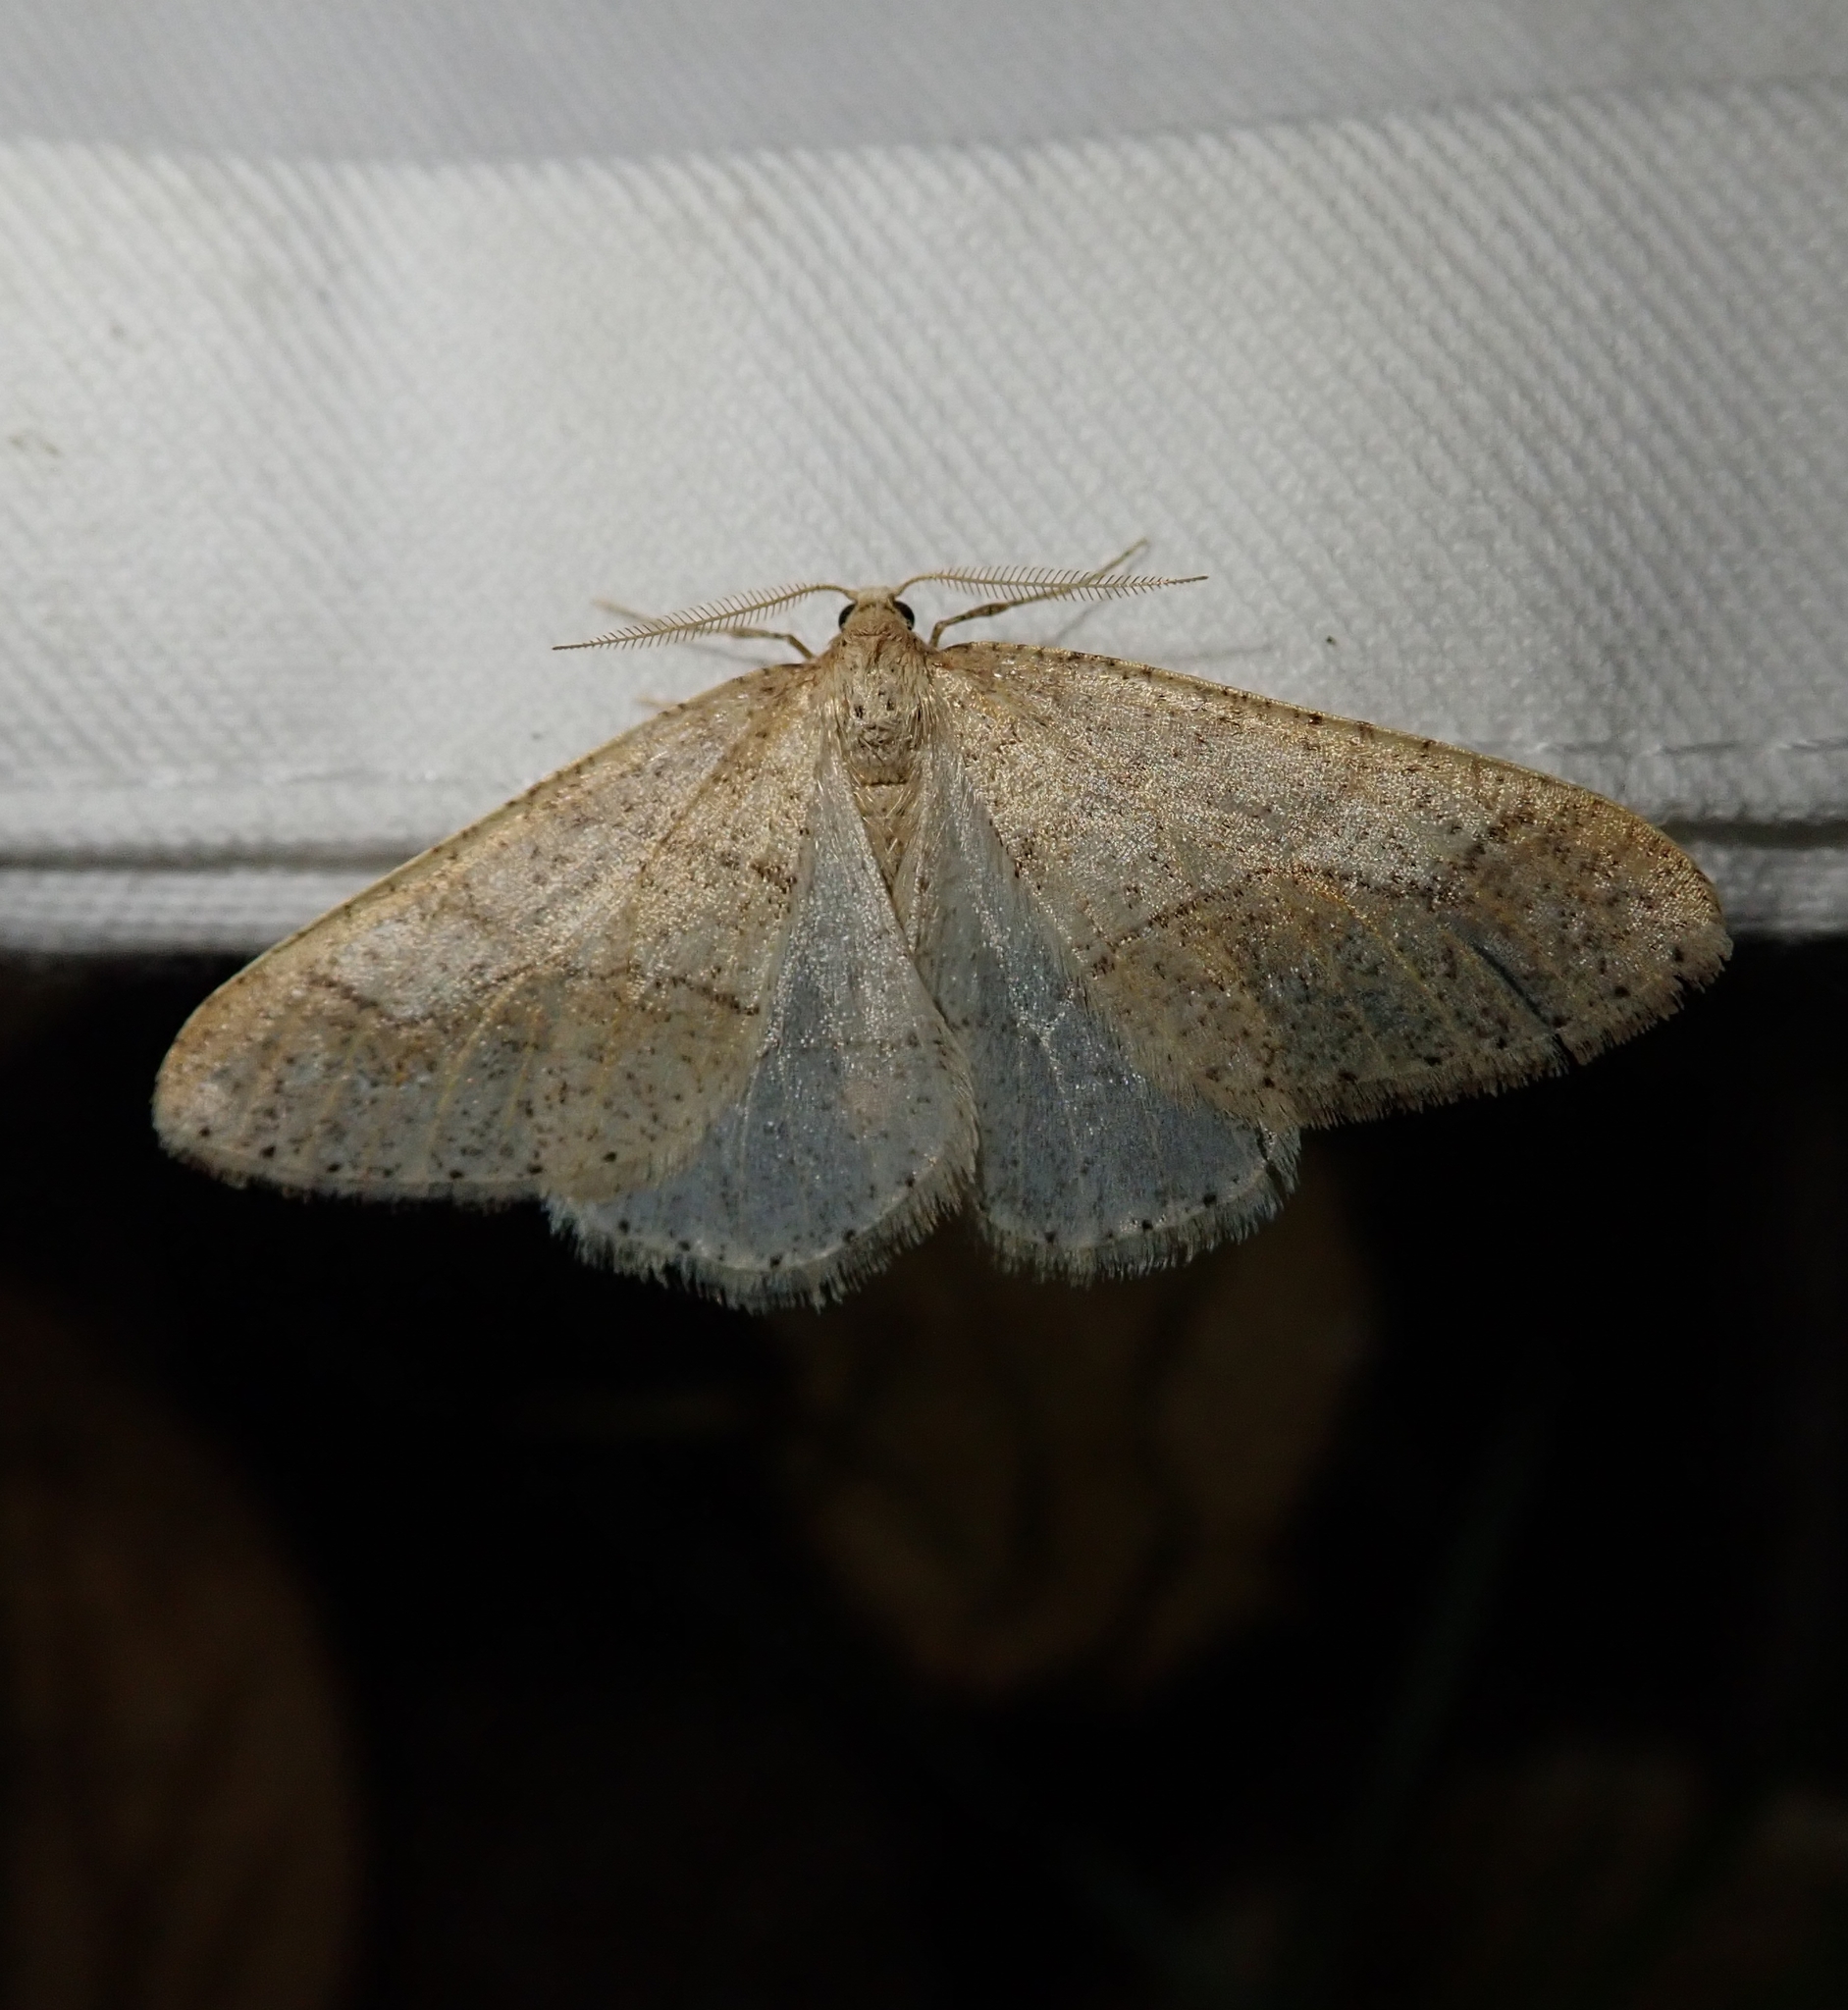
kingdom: Animalia
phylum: Arthropoda
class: Insecta
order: Lepidoptera
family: Geometridae
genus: Agriopis
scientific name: Agriopis marginaria
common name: Dotted border
